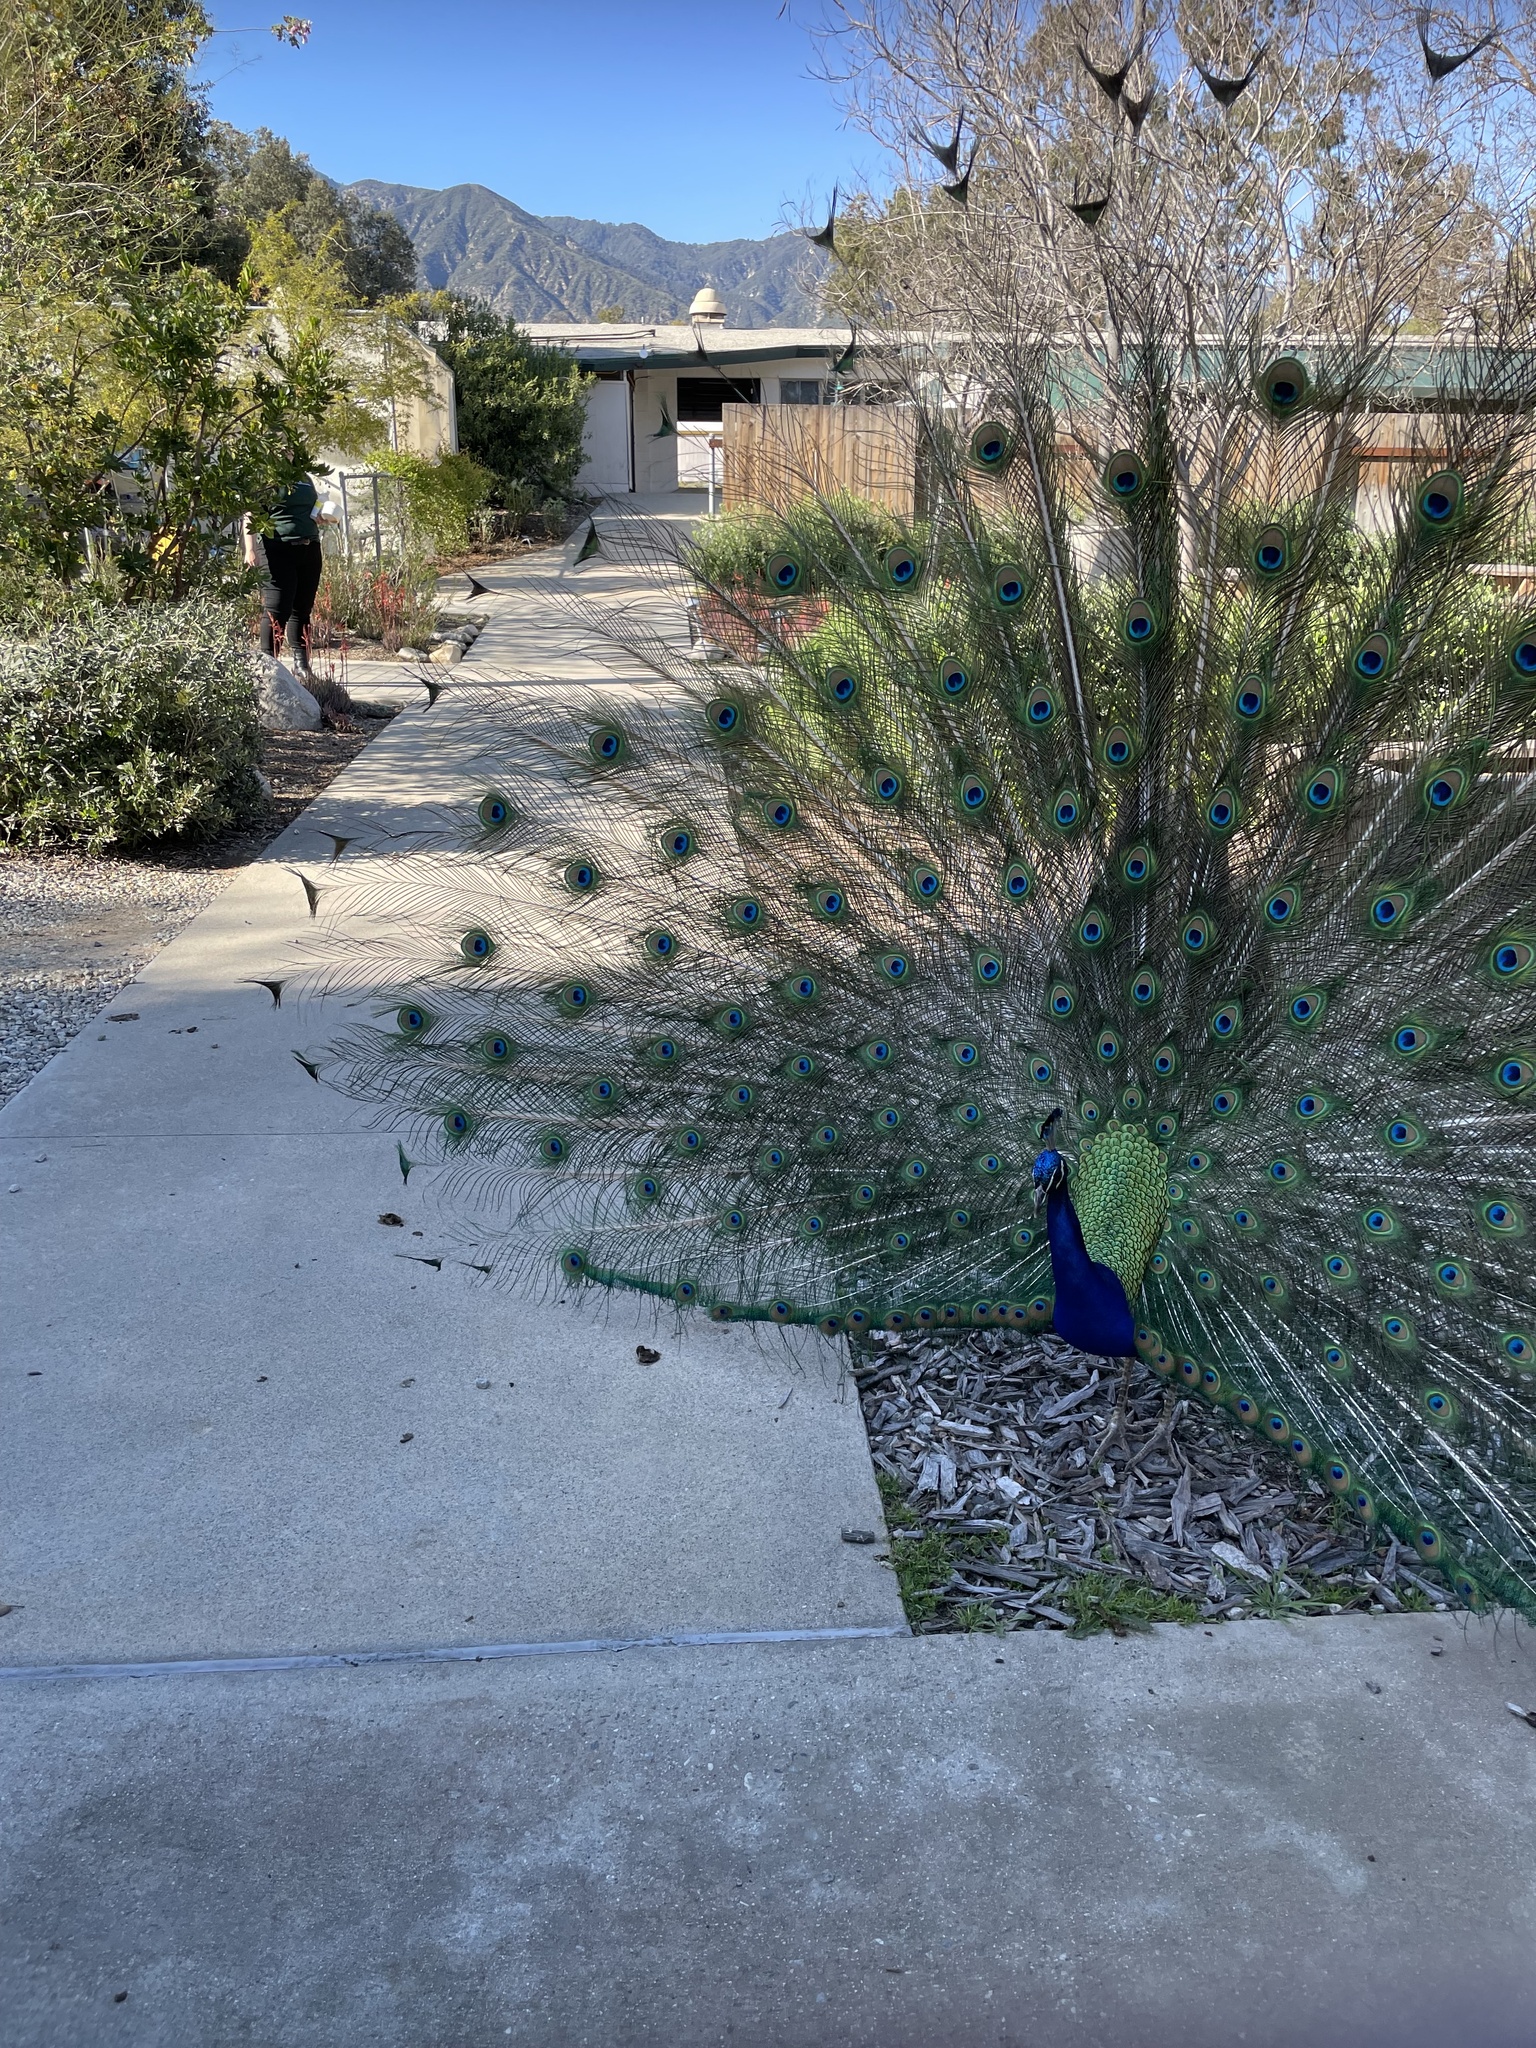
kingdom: Animalia
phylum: Chordata
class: Aves
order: Galliformes
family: Phasianidae
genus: Pavo
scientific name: Pavo cristatus
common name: Indian peafowl
